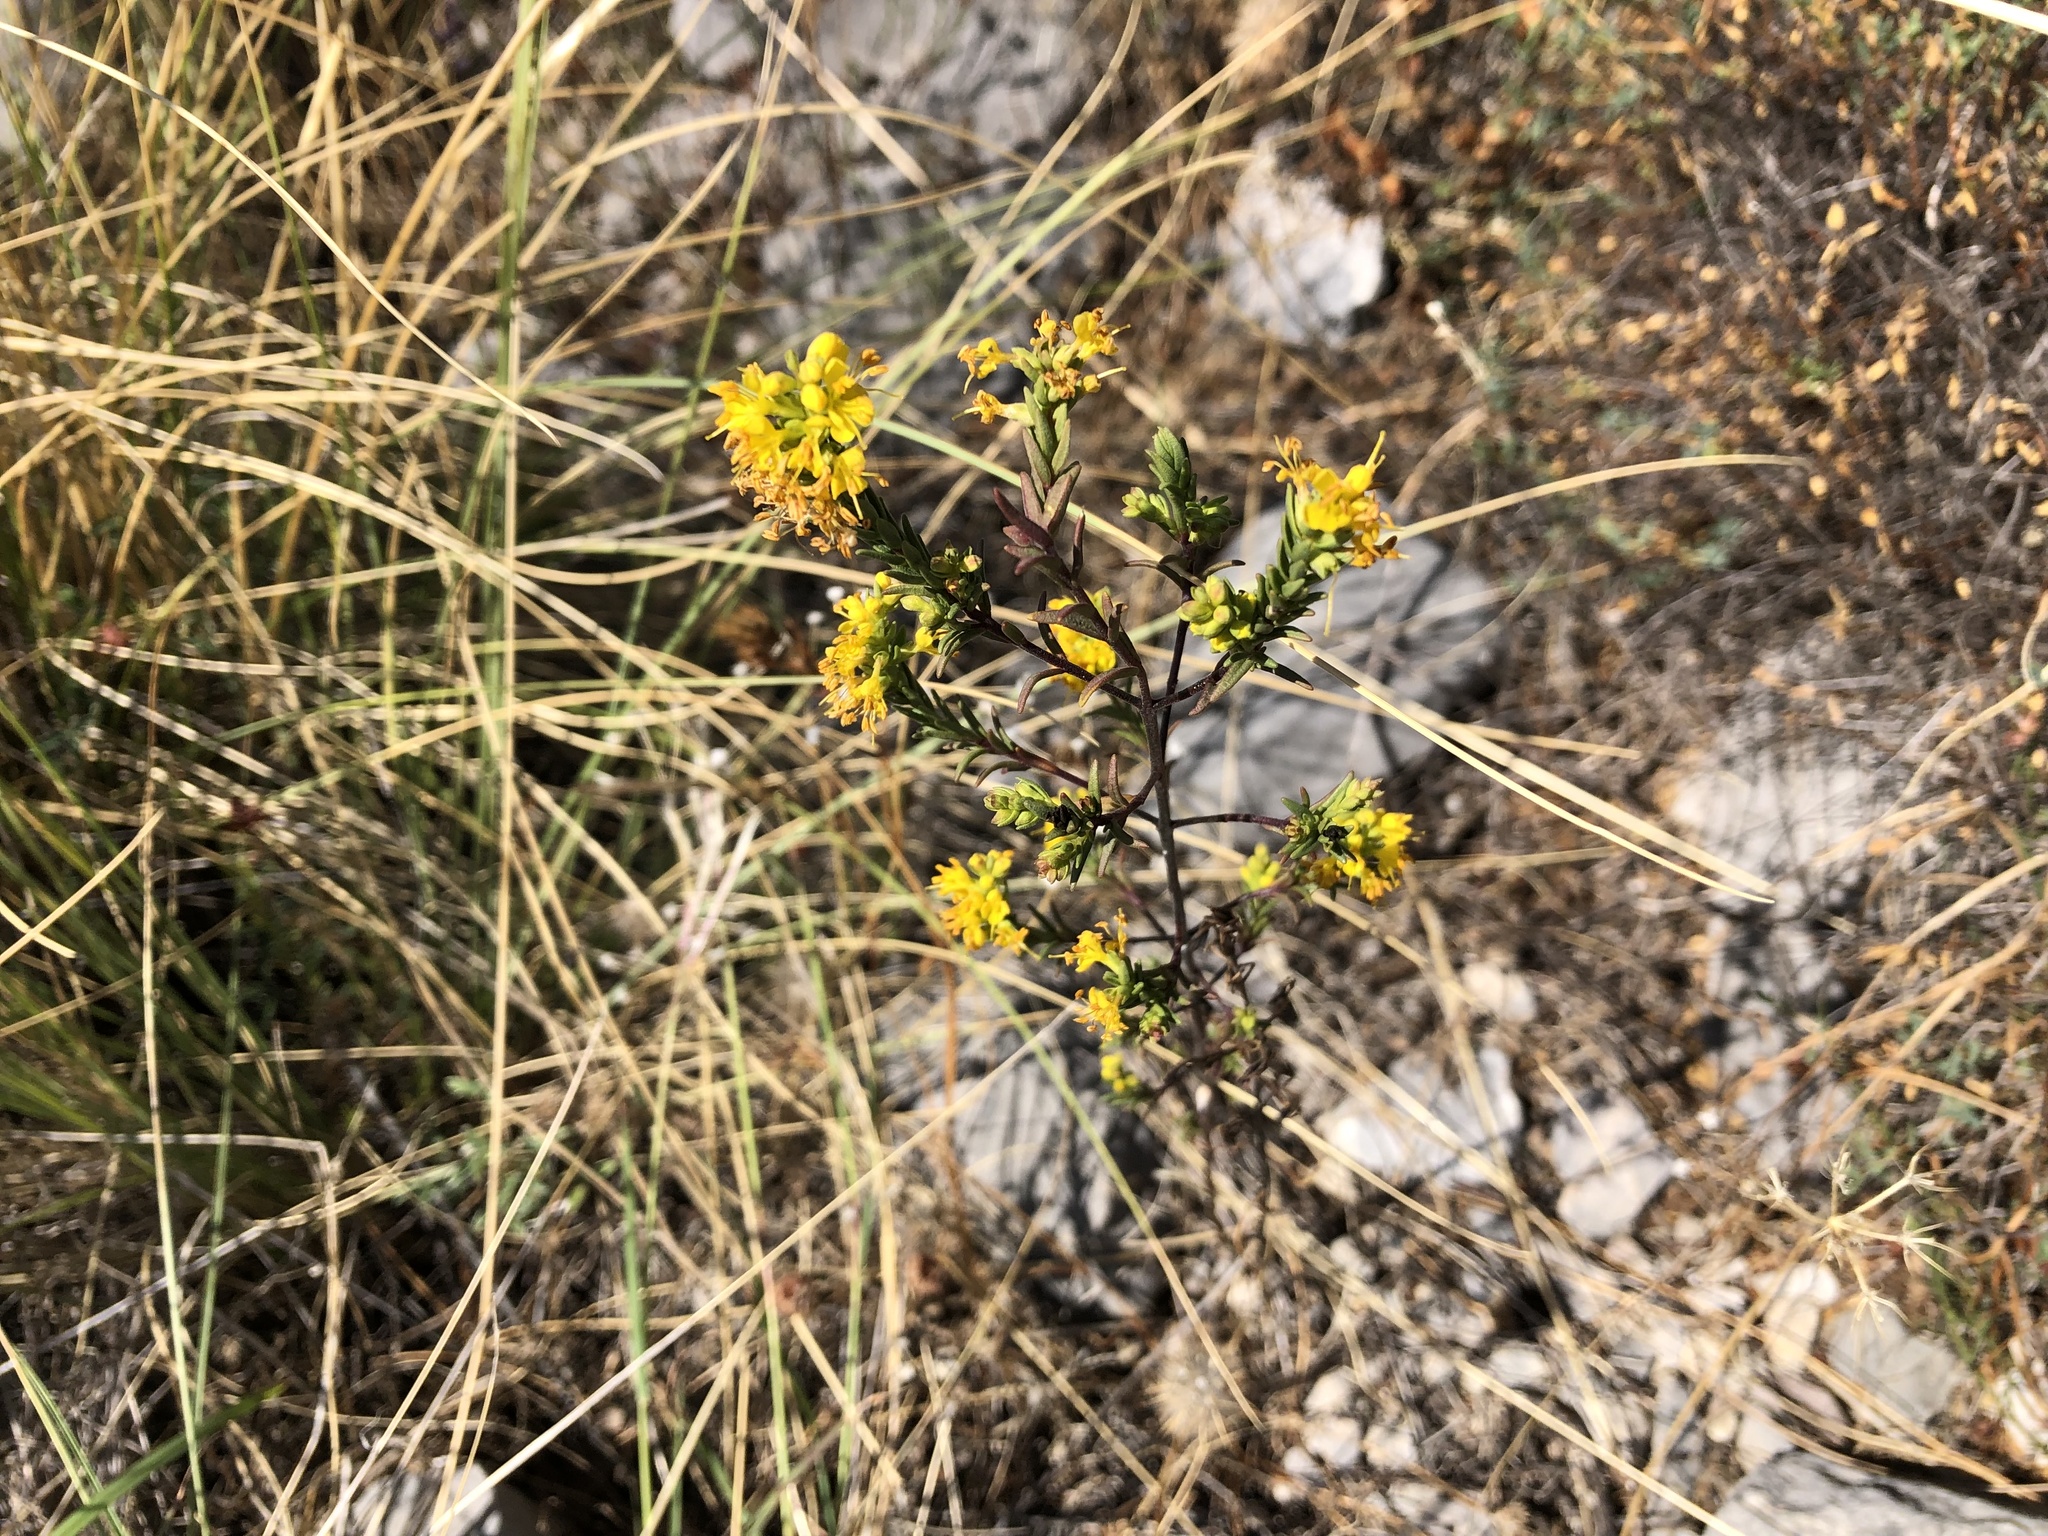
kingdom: Plantae
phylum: Tracheophyta
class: Magnoliopsida
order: Lamiales
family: Orobanchaceae
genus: Odontites
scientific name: Odontites luteus
